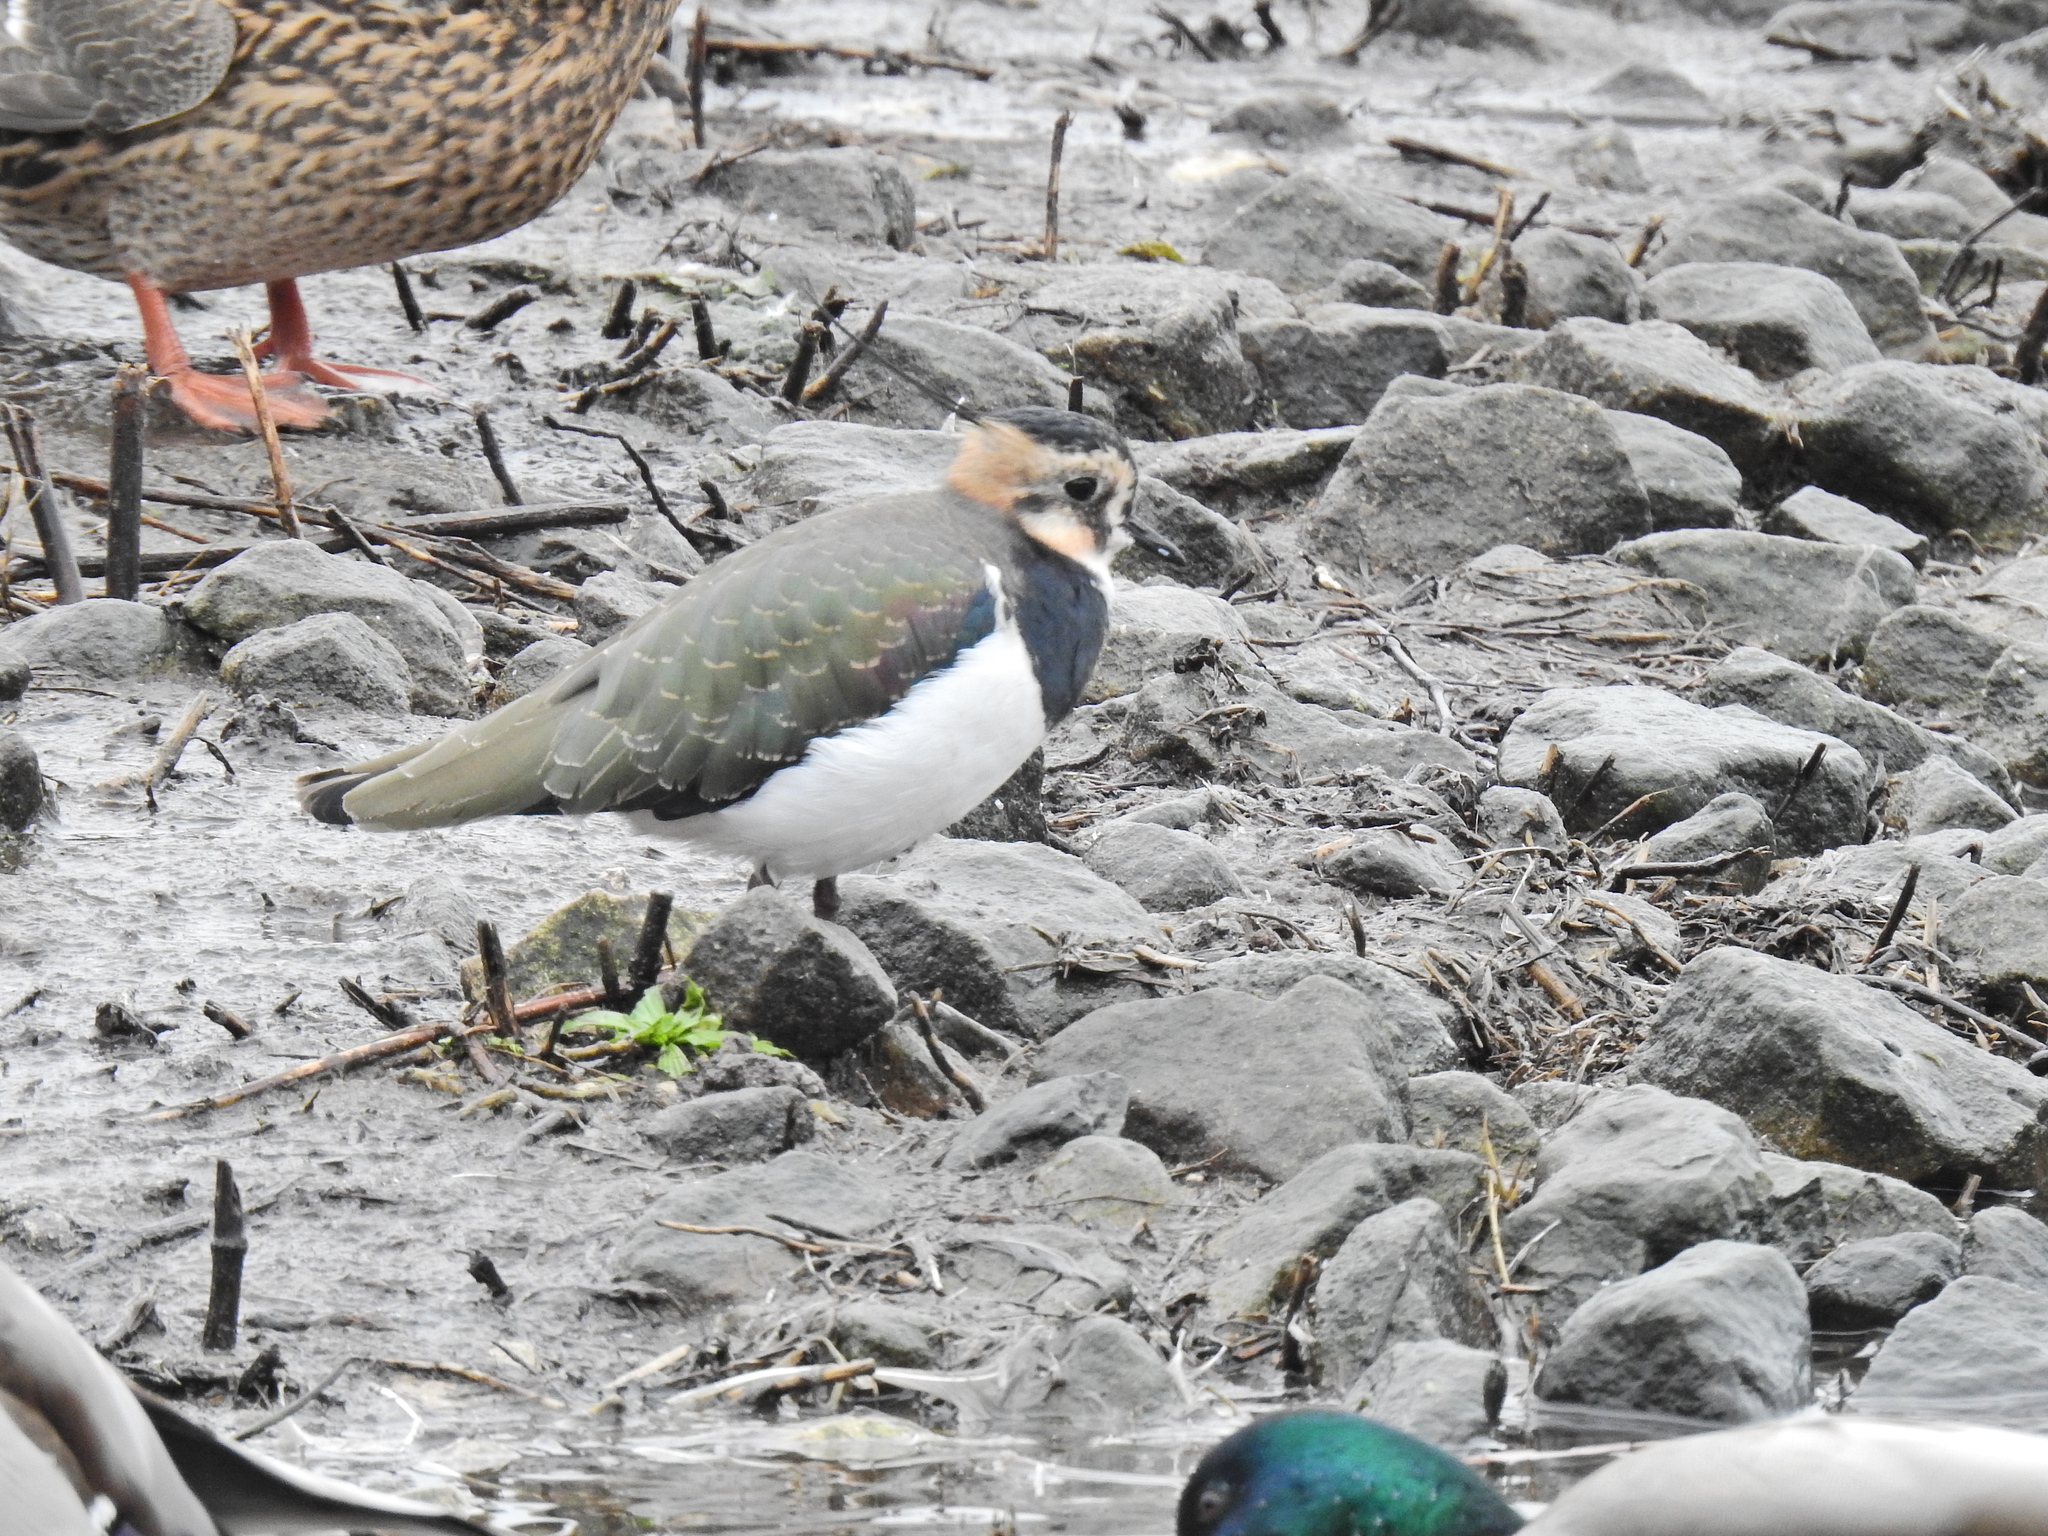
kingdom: Animalia
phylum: Chordata
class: Aves
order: Charadriiformes
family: Charadriidae
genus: Vanellus
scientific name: Vanellus vanellus
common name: Northern lapwing
